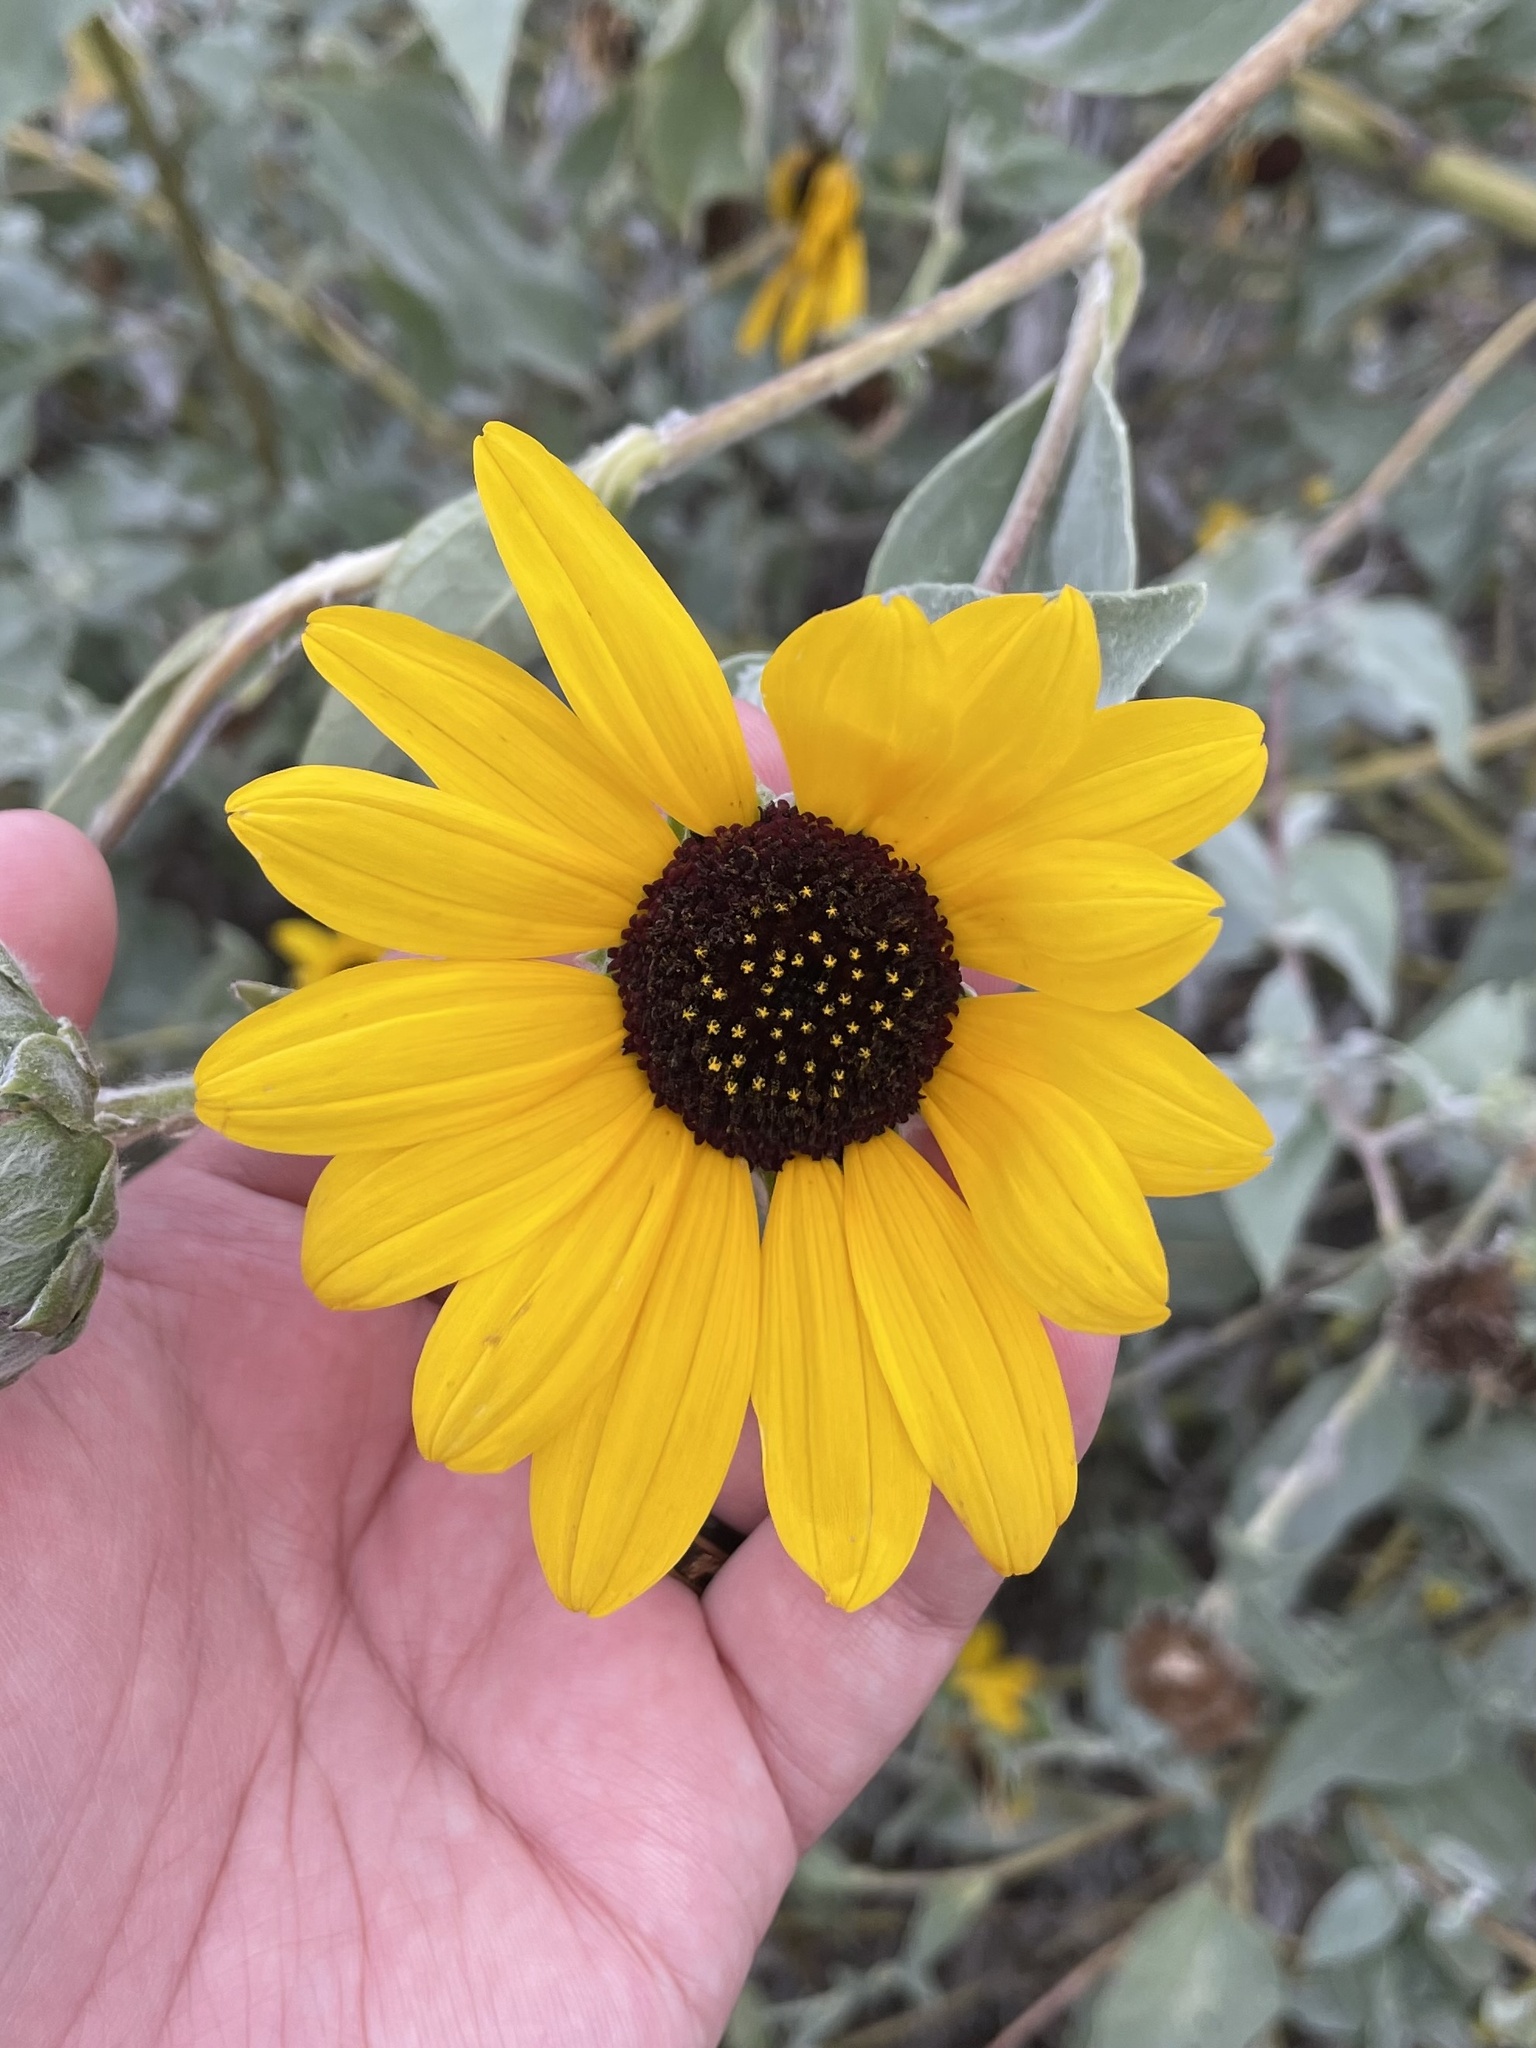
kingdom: Plantae
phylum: Tracheophyta
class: Magnoliopsida
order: Asterales
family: Asteraceae
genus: Helianthus
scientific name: Helianthus argophyllus
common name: Silverleaf sunflower
